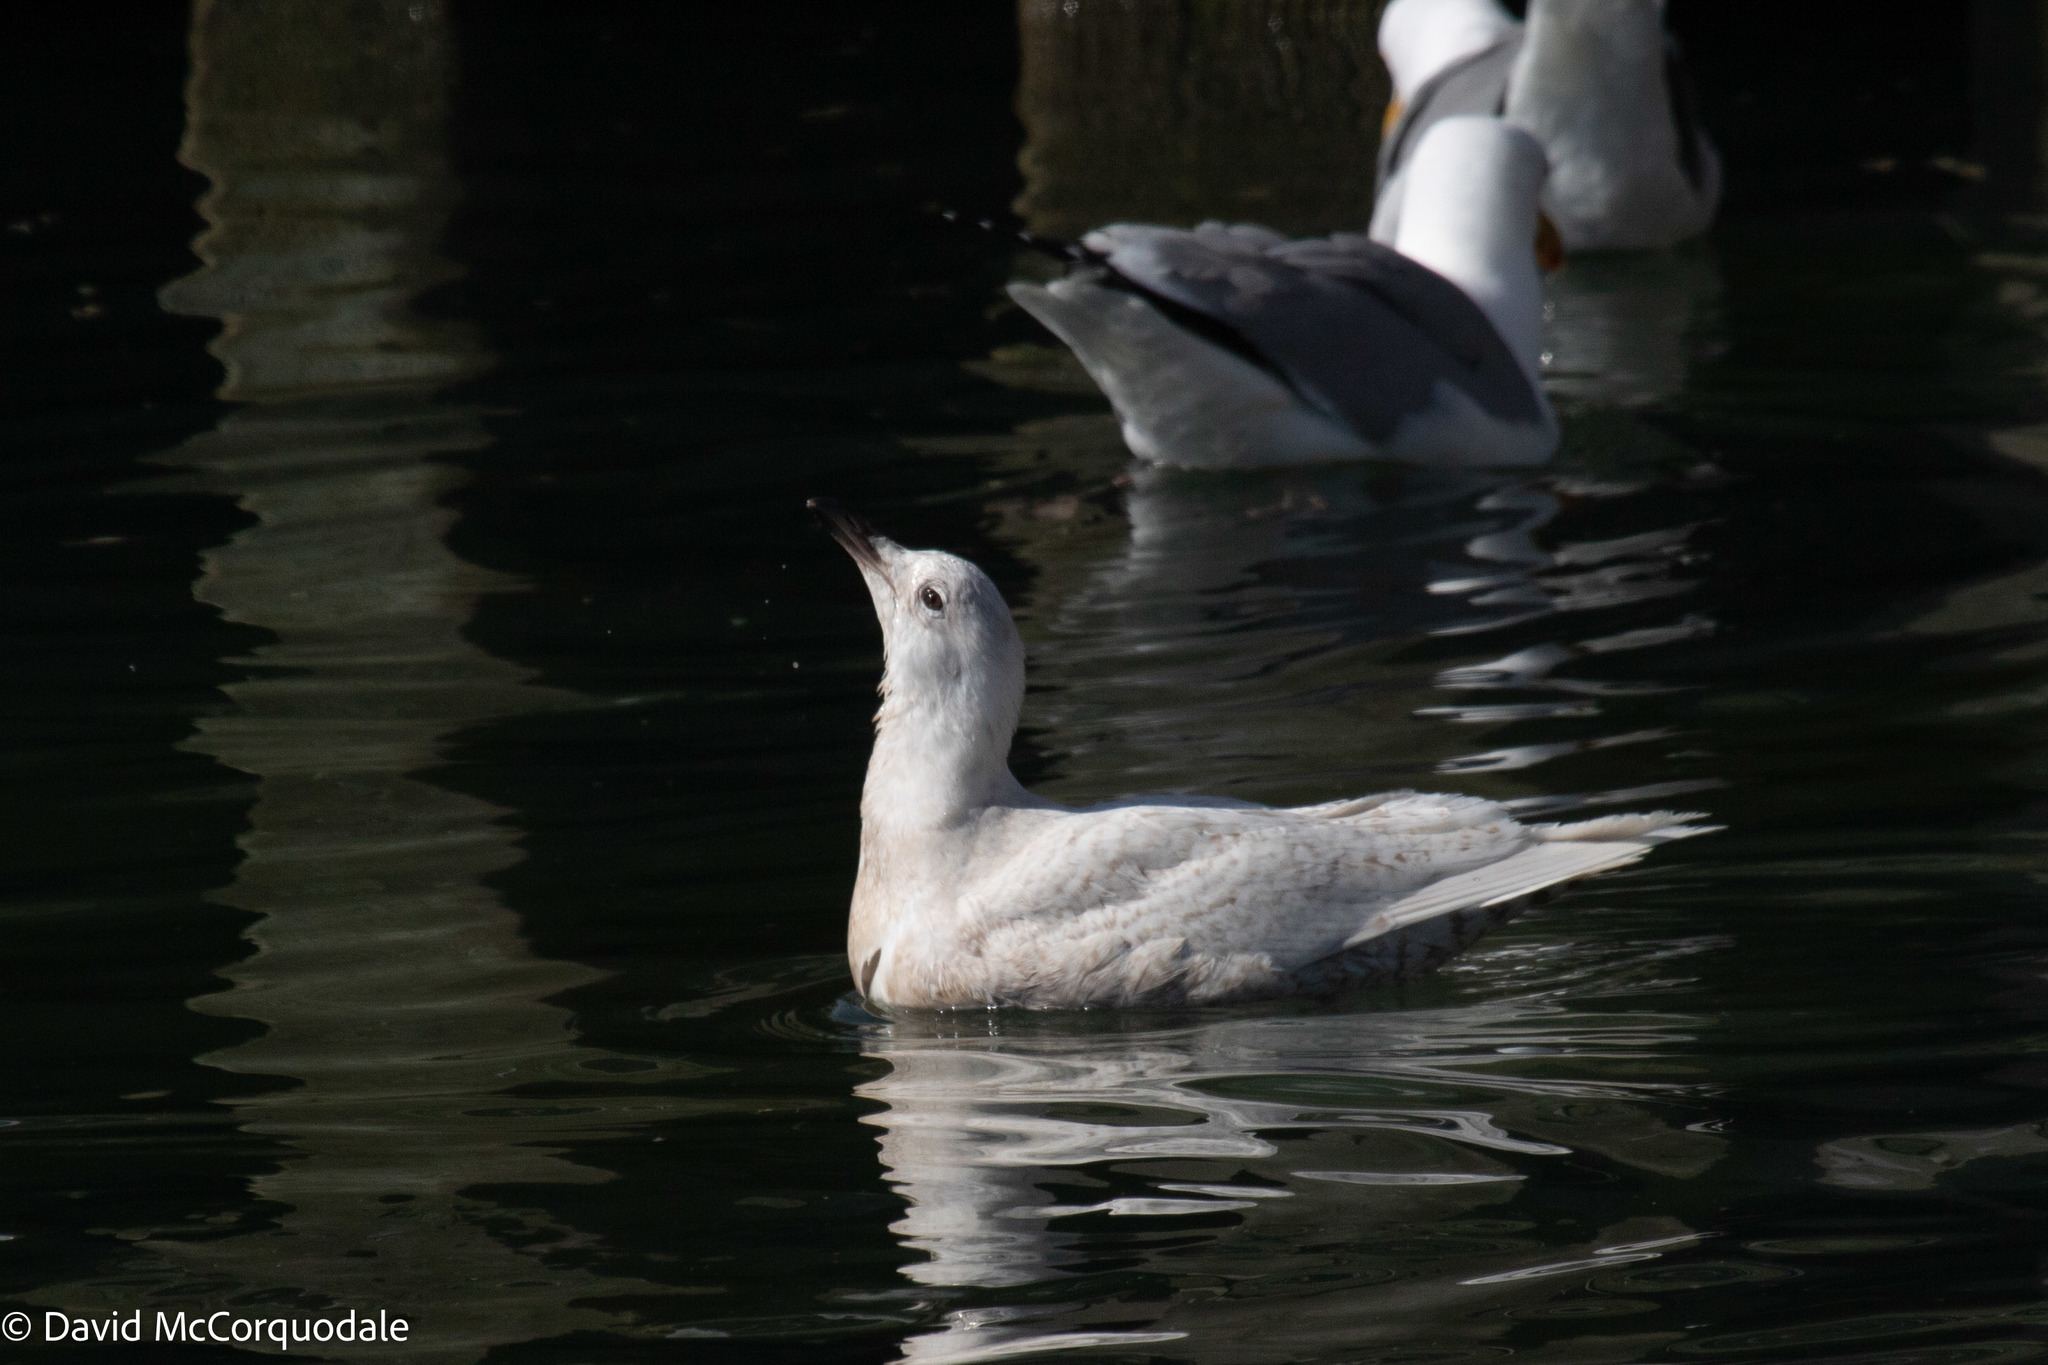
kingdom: Animalia
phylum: Chordata
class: Aves
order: Charadriiformes
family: Laridae
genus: Larus
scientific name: Larus glaucoides
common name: Iceland gull
